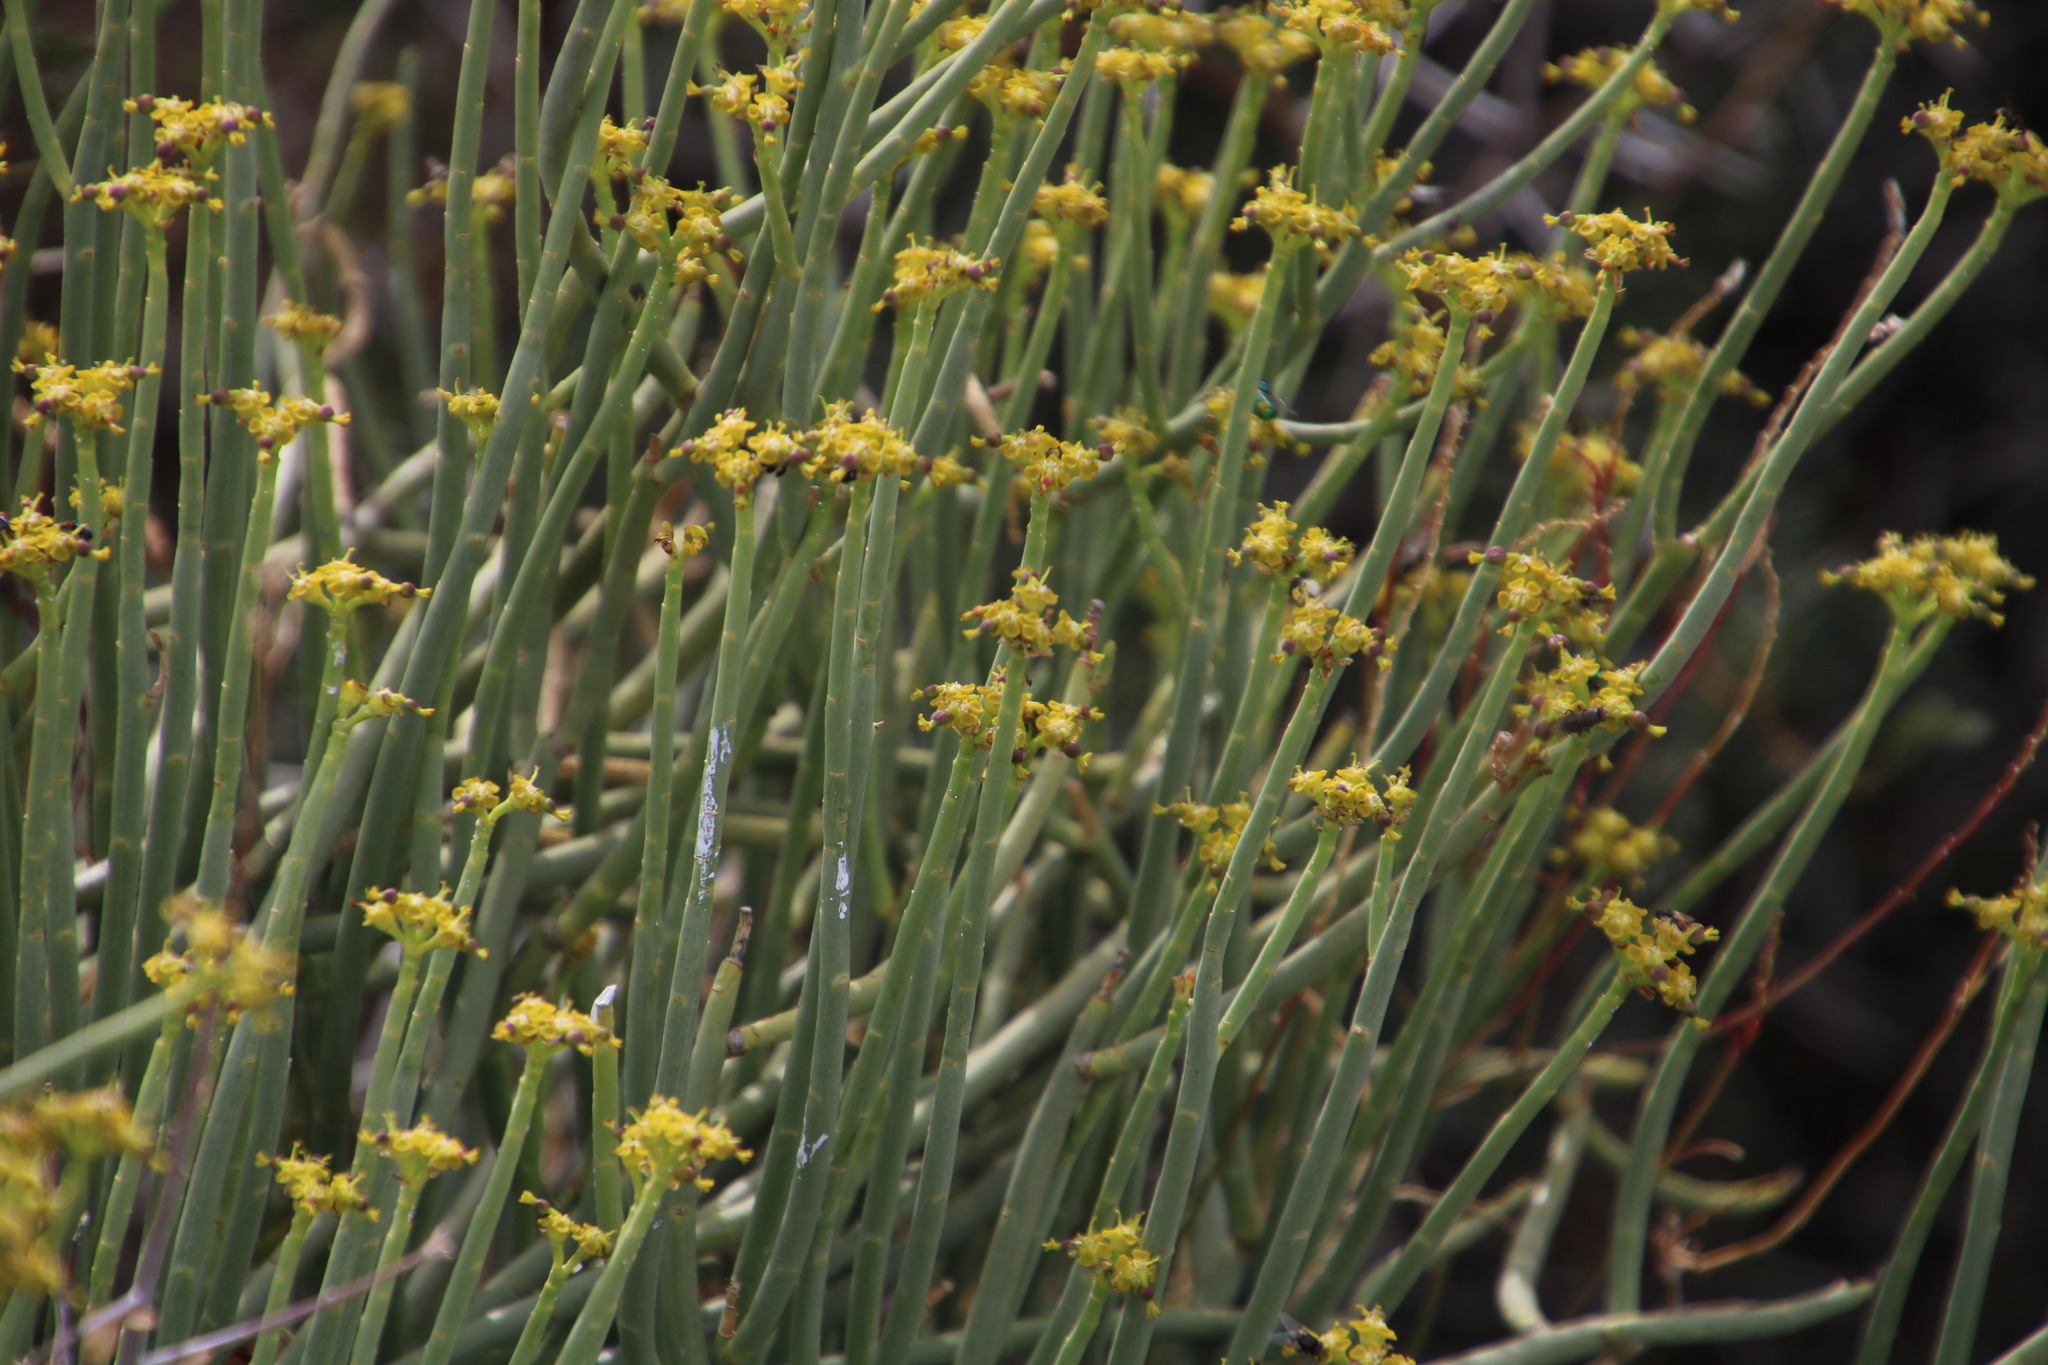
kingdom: Plantae
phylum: Tracheophyta
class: Magnoliopsida
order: Malpighiales
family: Euphorbiaceae
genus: Euphorbia
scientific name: Euphorbia mauritanica
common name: Jackal's-food
